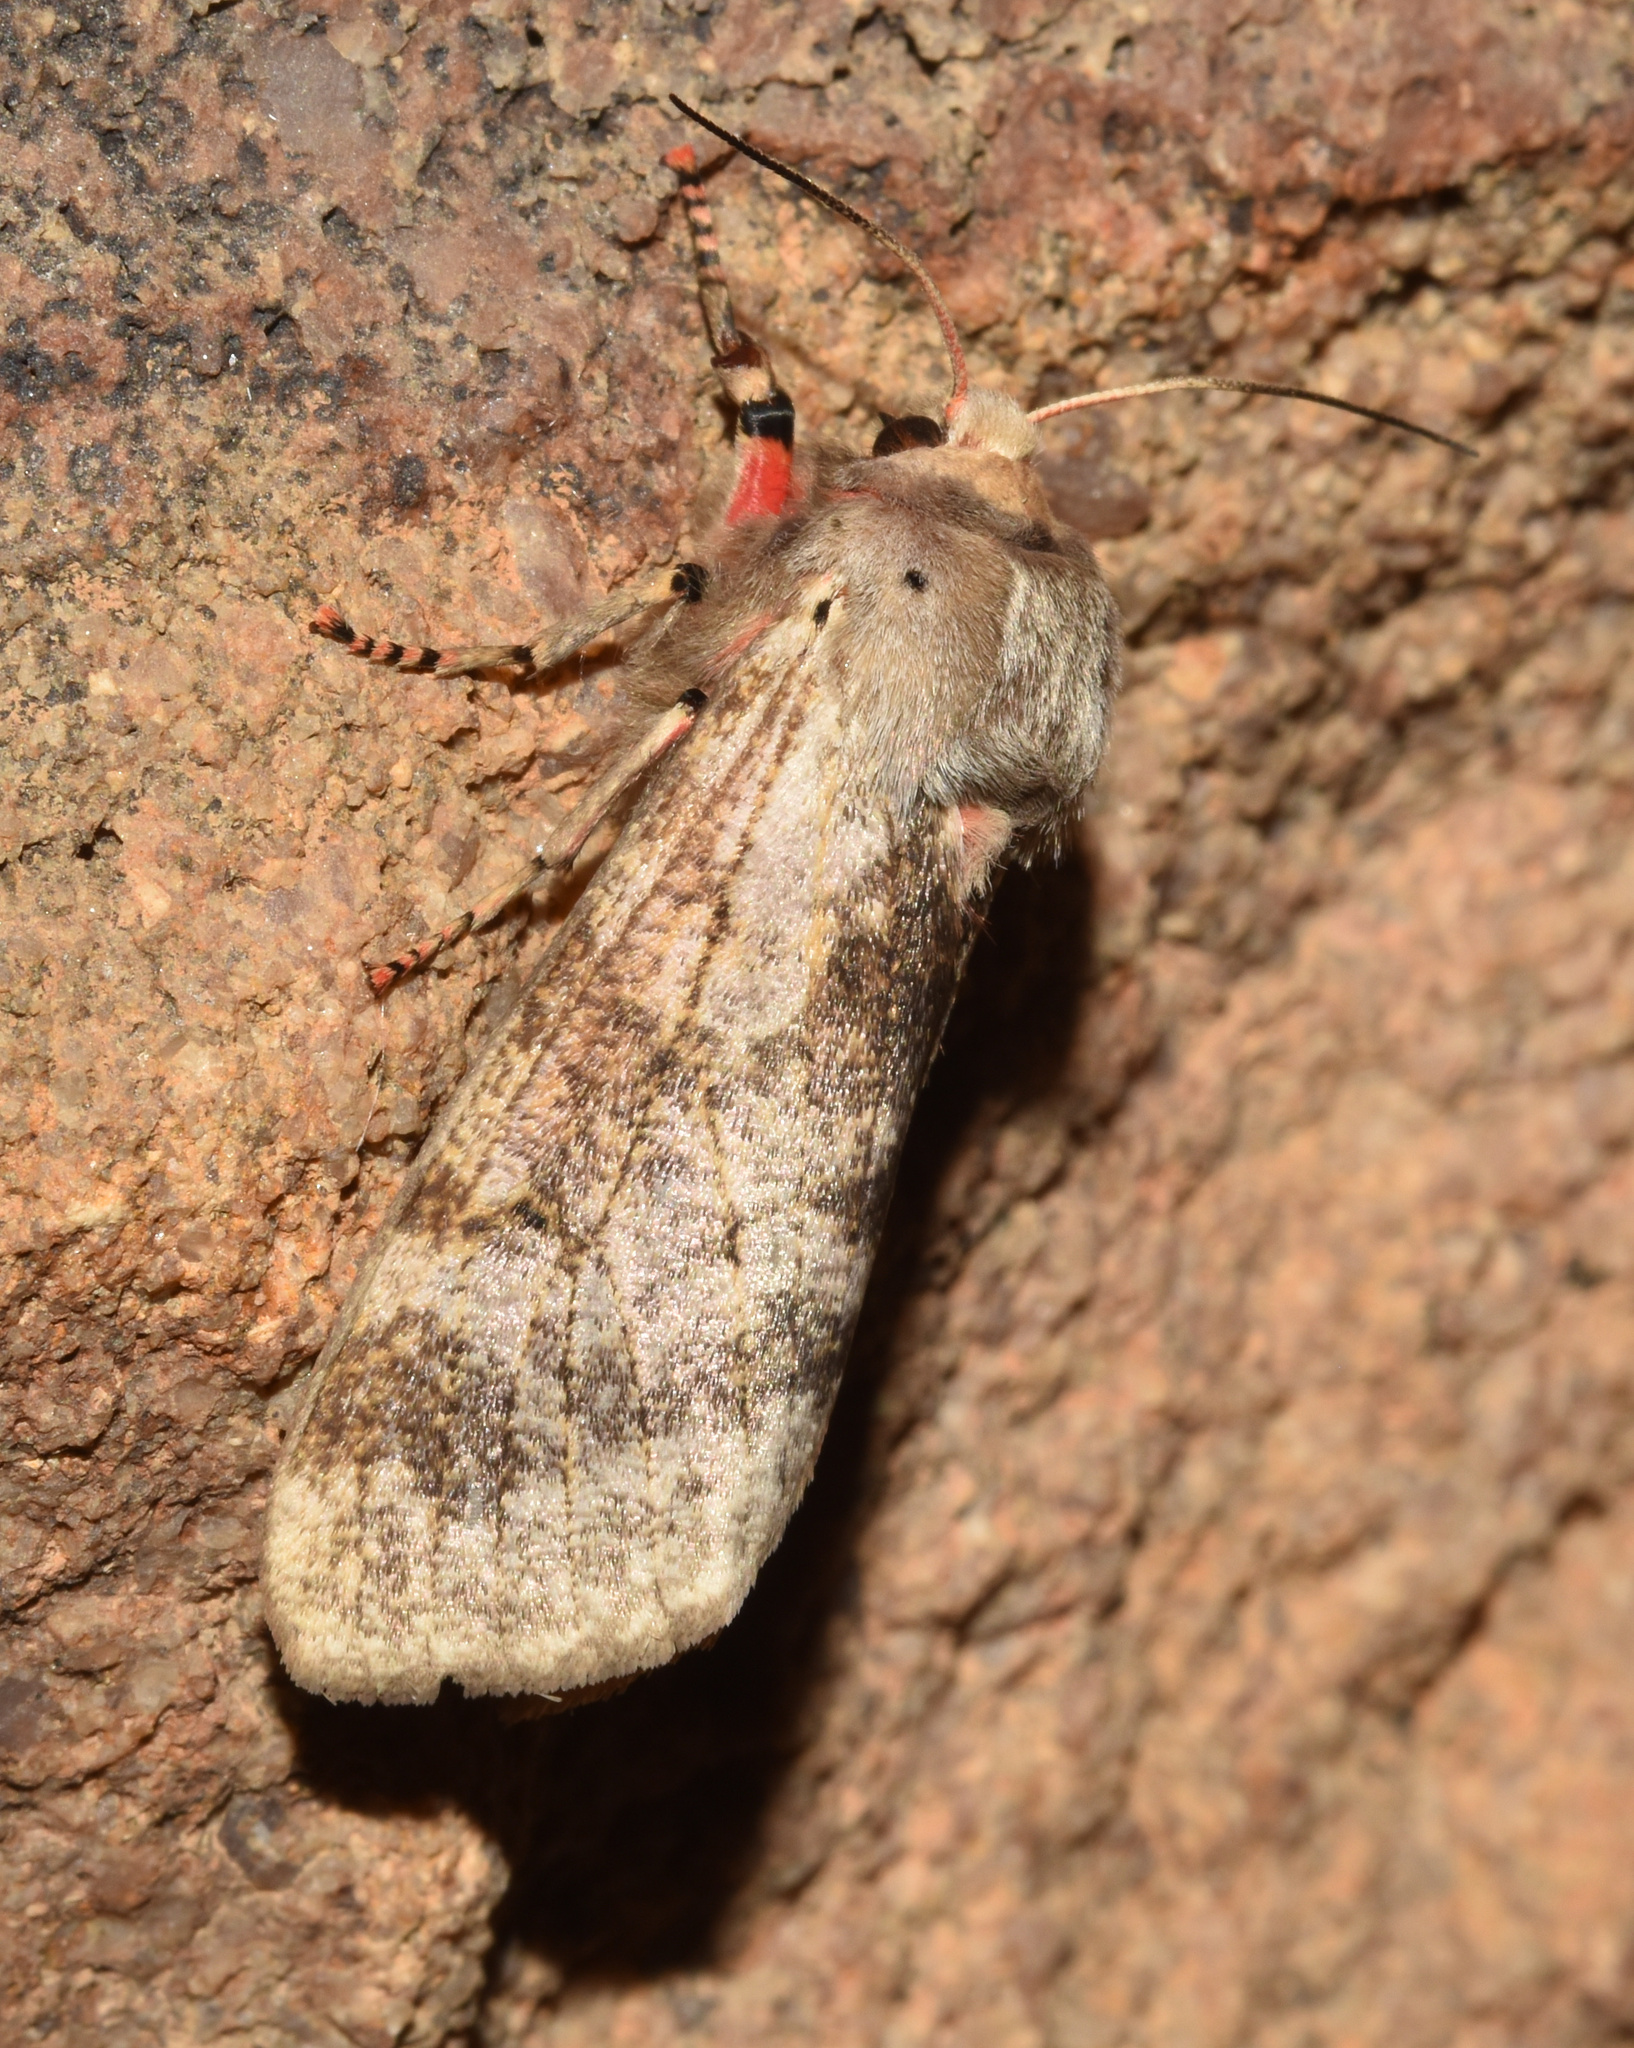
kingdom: Animalia
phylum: Arthropoda
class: Insecta
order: Lepidoptera
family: Erebidae
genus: Teracotona
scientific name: Teracotona submacula
